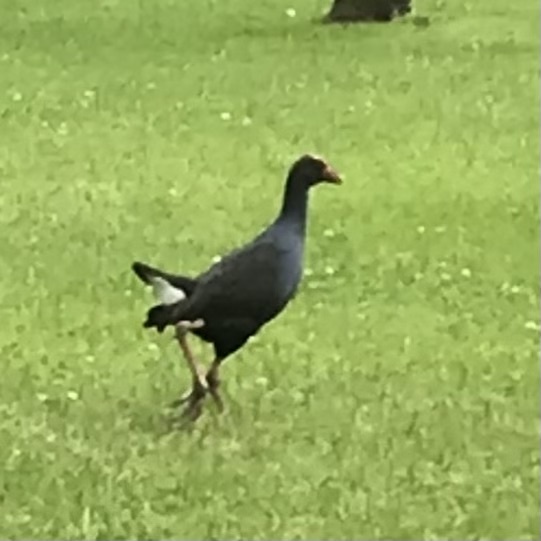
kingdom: Animalia
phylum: Chordata
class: Aves
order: Gruiformes
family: Rallidae
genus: Porphyrio
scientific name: Porphyrio melanotus
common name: Australasian swamphen
